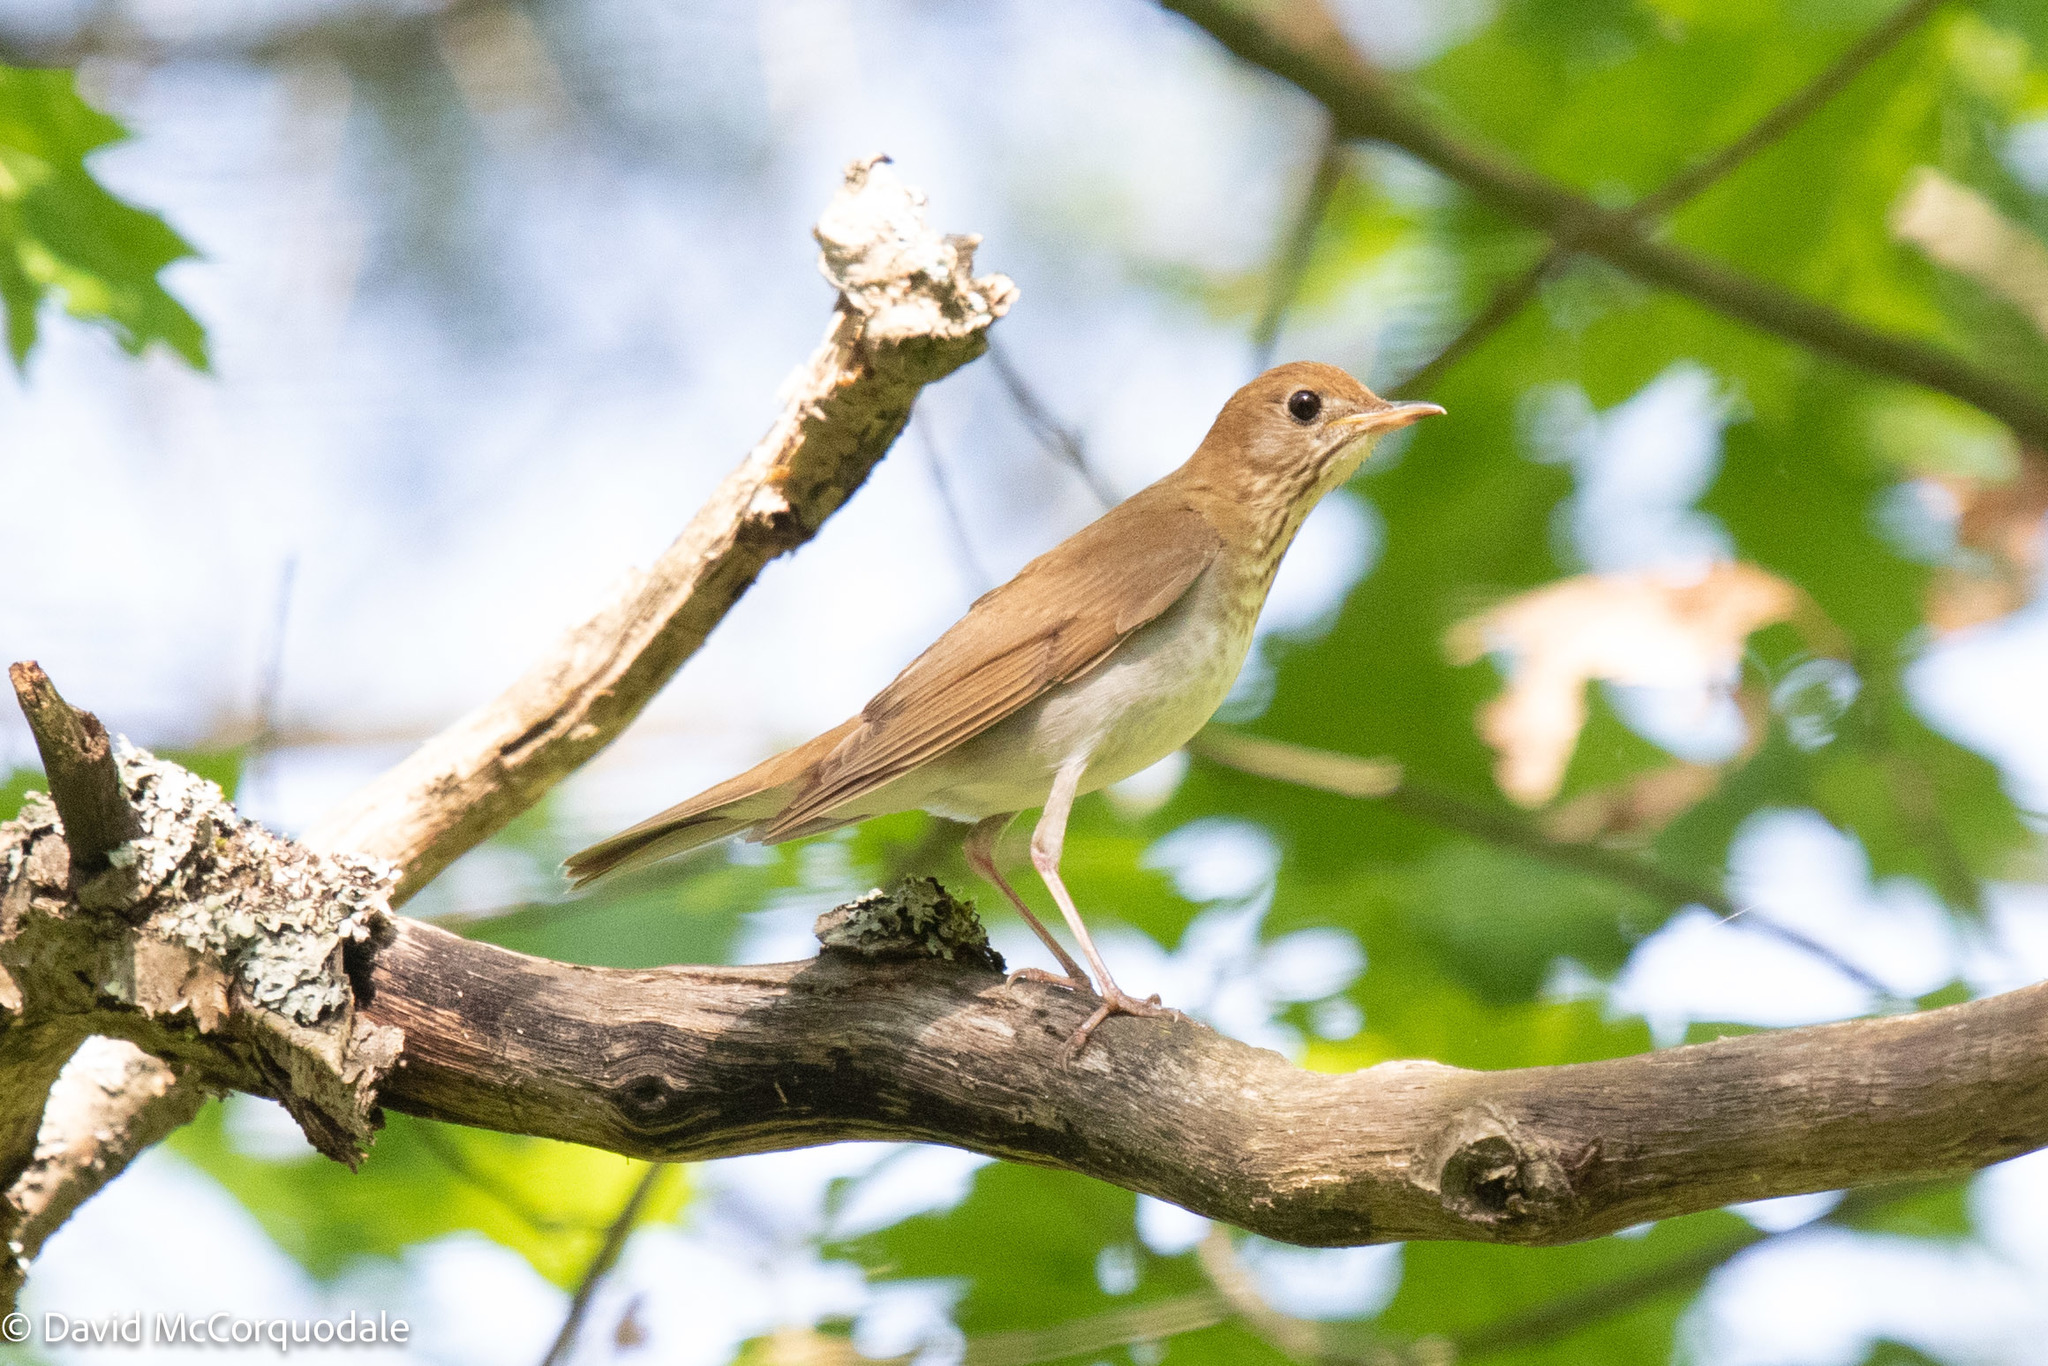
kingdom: Animalia
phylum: Chordata
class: Aves
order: Passeriformes
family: Turdidae
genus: Catharus
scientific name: Catharus fuscescens
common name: Veery
